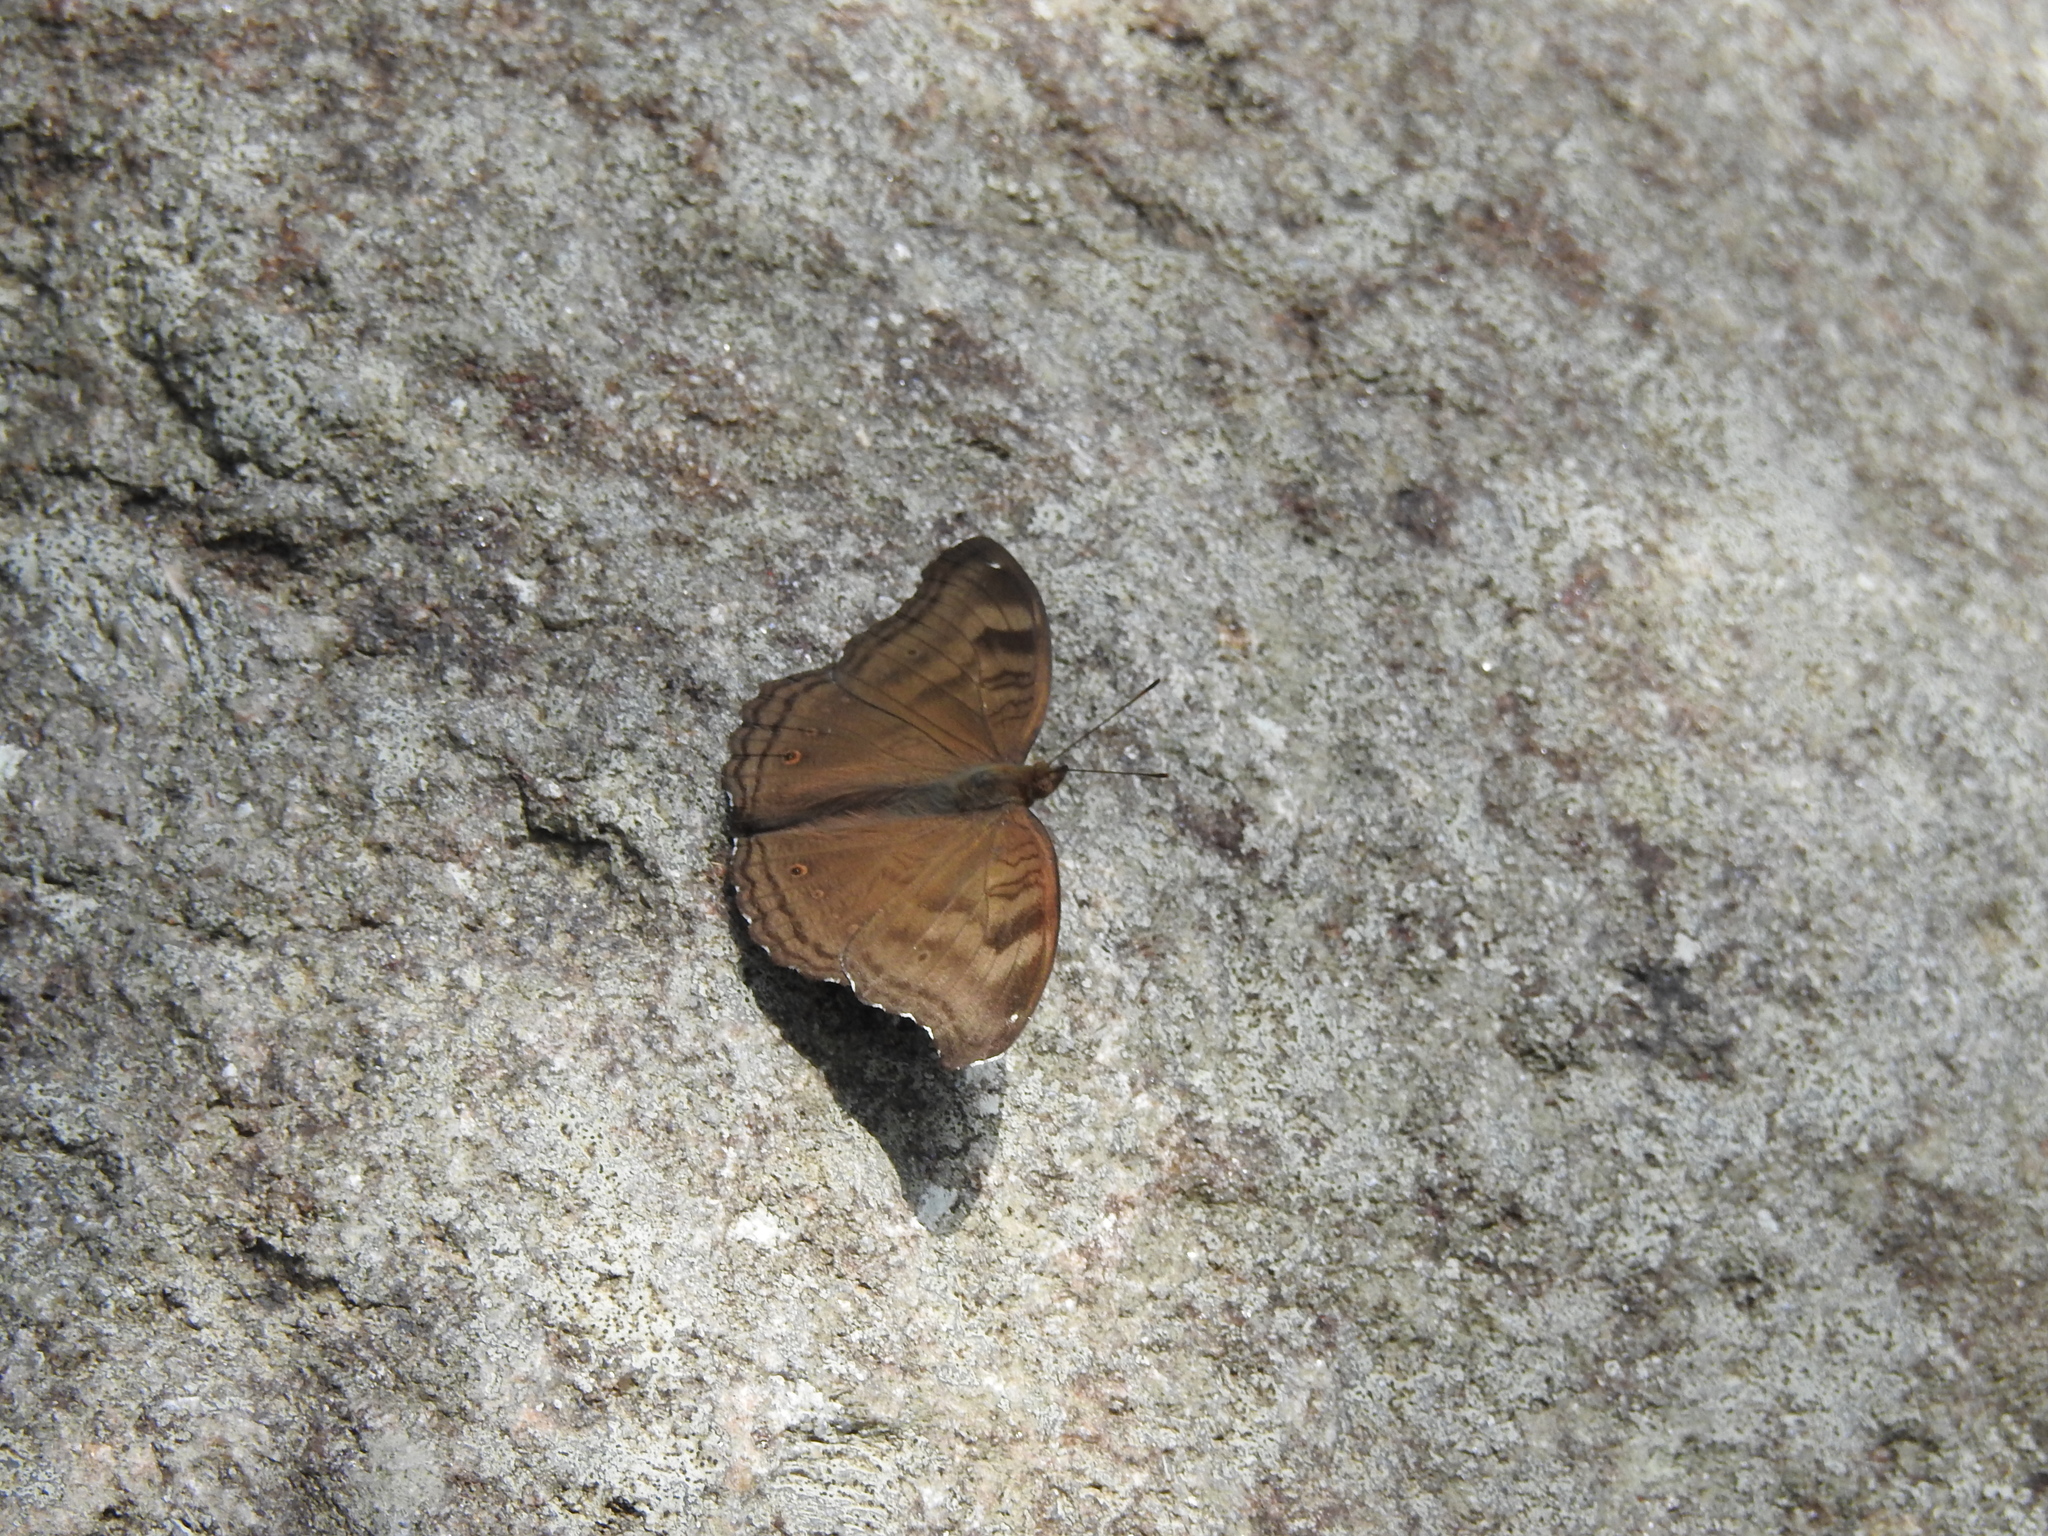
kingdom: Animalia
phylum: Arthropoda
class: Insecta
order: Lepidoptera
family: Nymphalidae
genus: Junonia
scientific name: Junonia iphita
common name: Chocolate pansy
